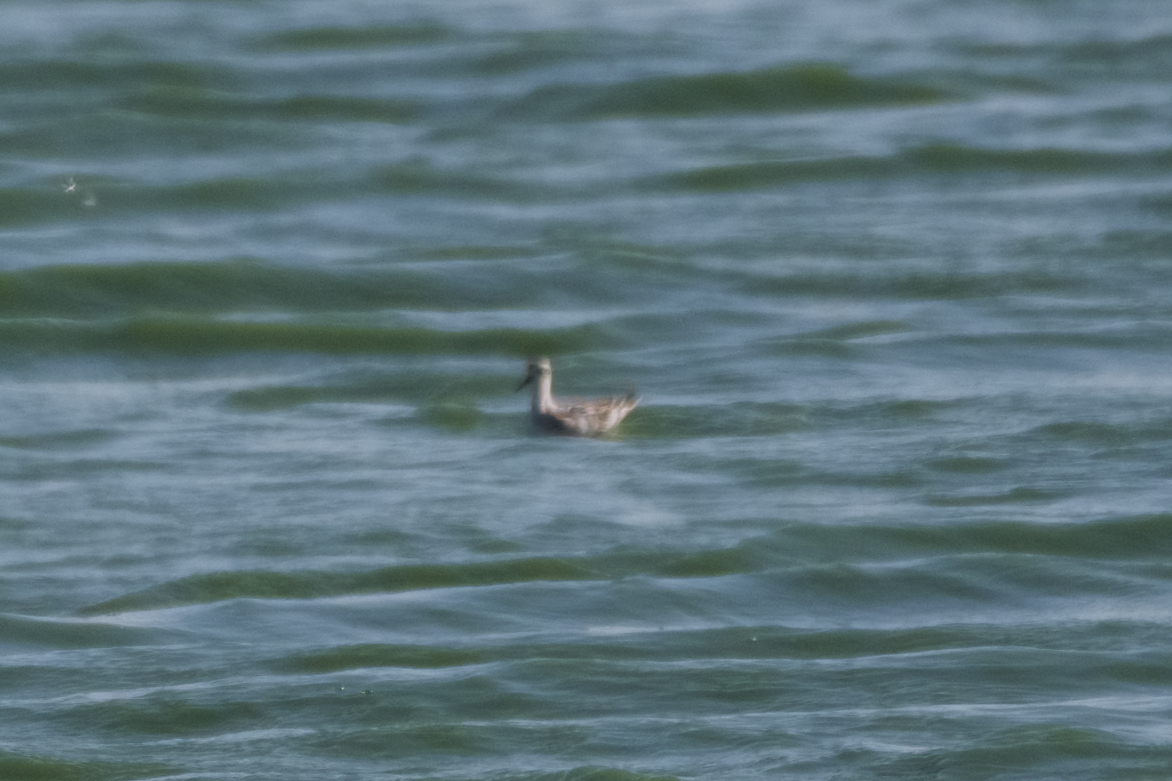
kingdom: Animalia
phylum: Chordata
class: Aves
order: Charadriiformes
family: Scolopacidae
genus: Phalaropus
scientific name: Phalaropus lobatus
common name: Red-necked phalarope
